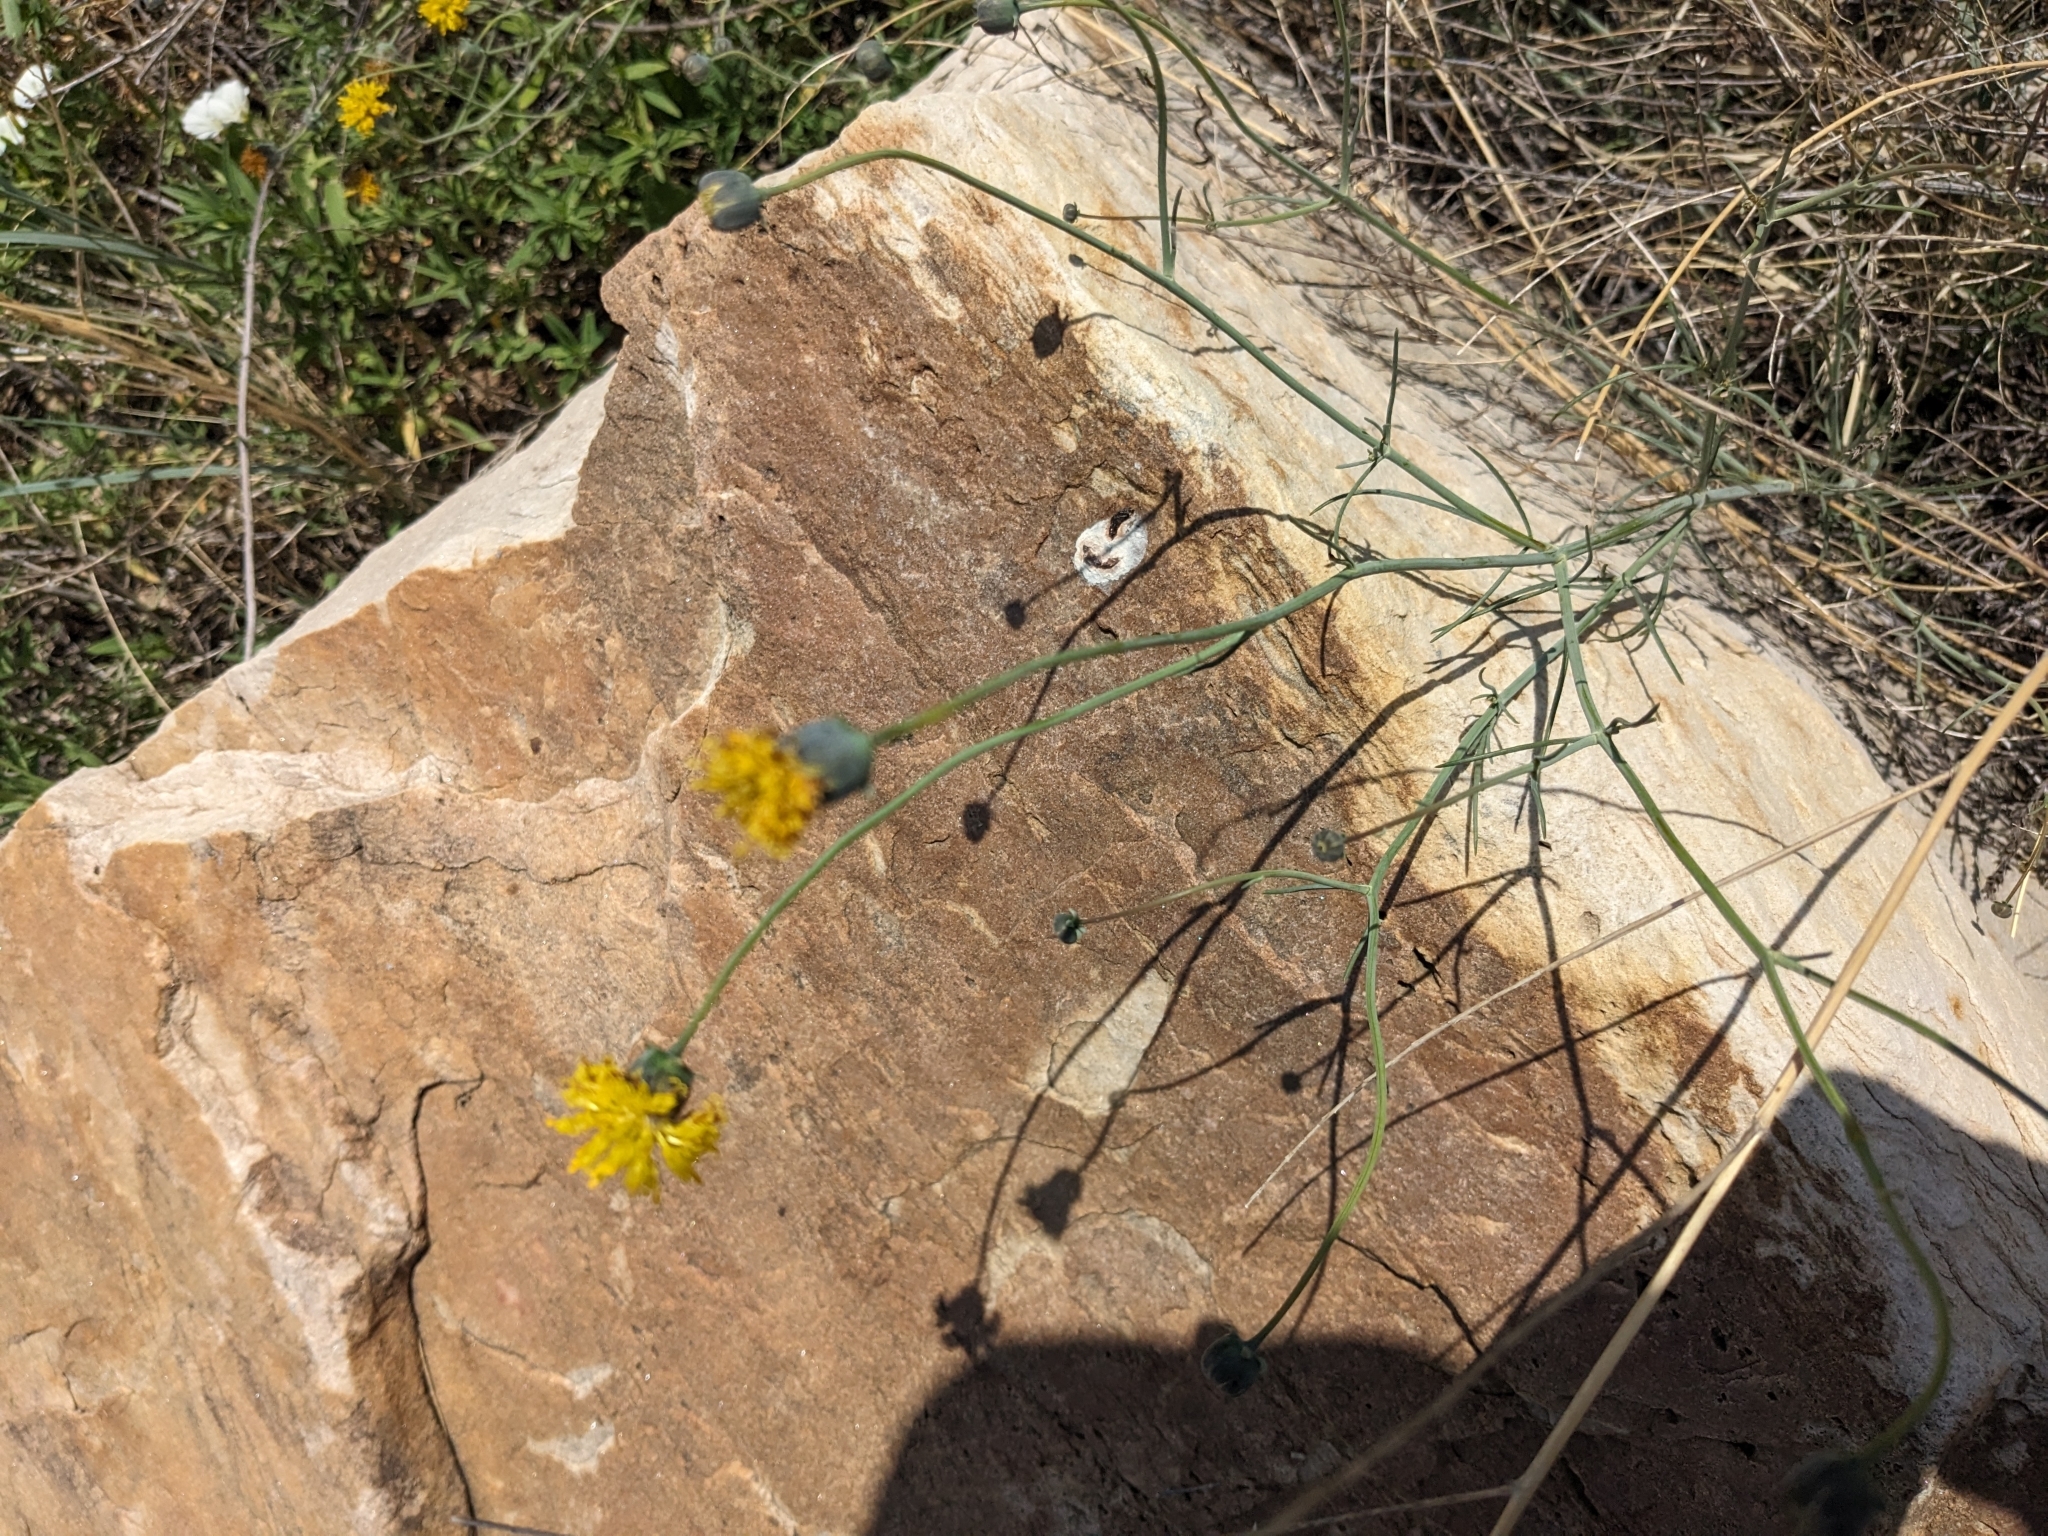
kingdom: Plantae
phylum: Tracheophyta
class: Magnoliopsida
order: Asterales
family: Asteraceae
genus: Thelesperma
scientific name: Thelesperma megapotamicum
